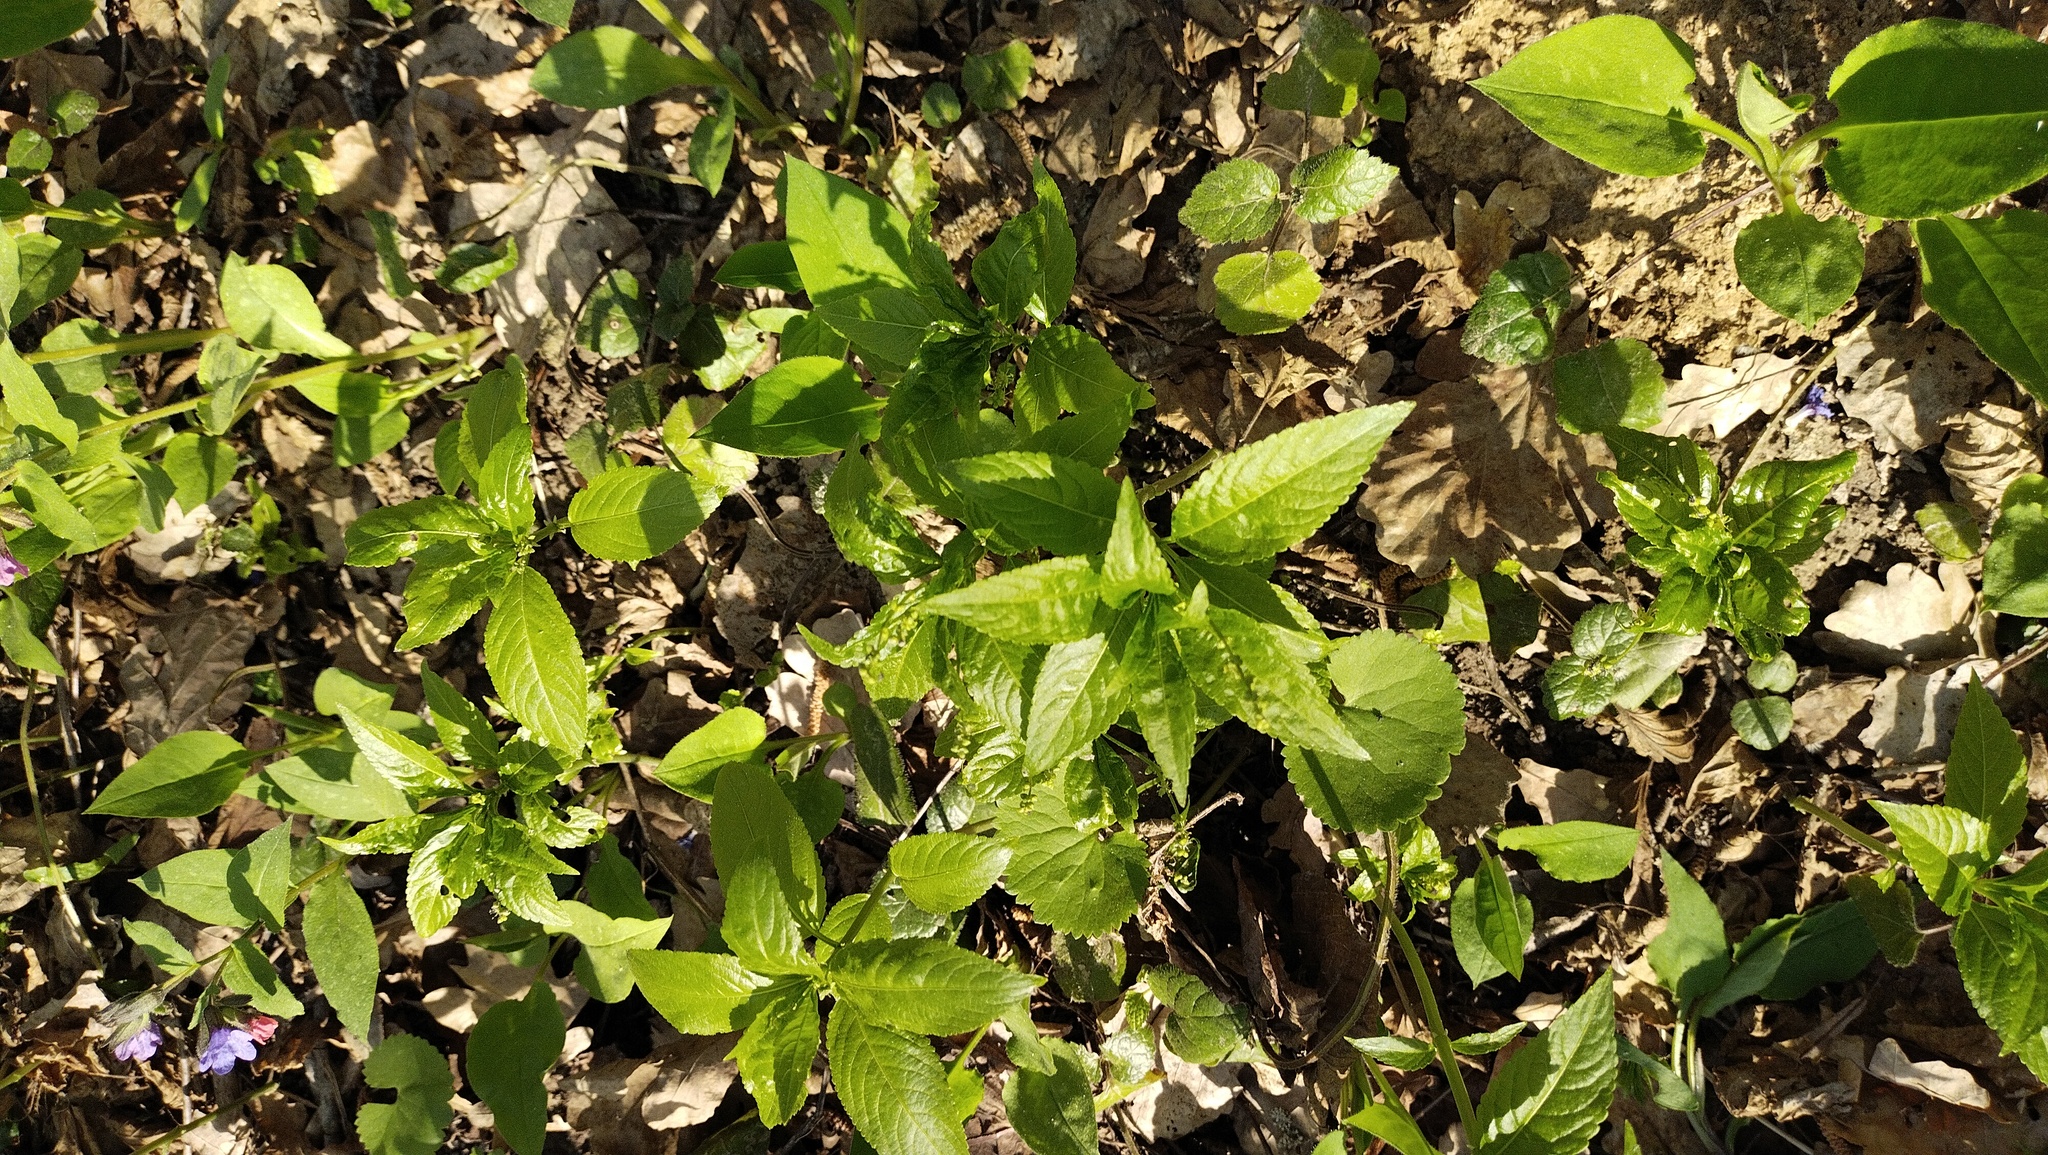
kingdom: Plantae
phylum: Tracheophyta
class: Magnoliopsida
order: Malpighiales
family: Euphorbiaceae
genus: Mercurialis
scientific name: Mercurialis perennis
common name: Dog mercury
